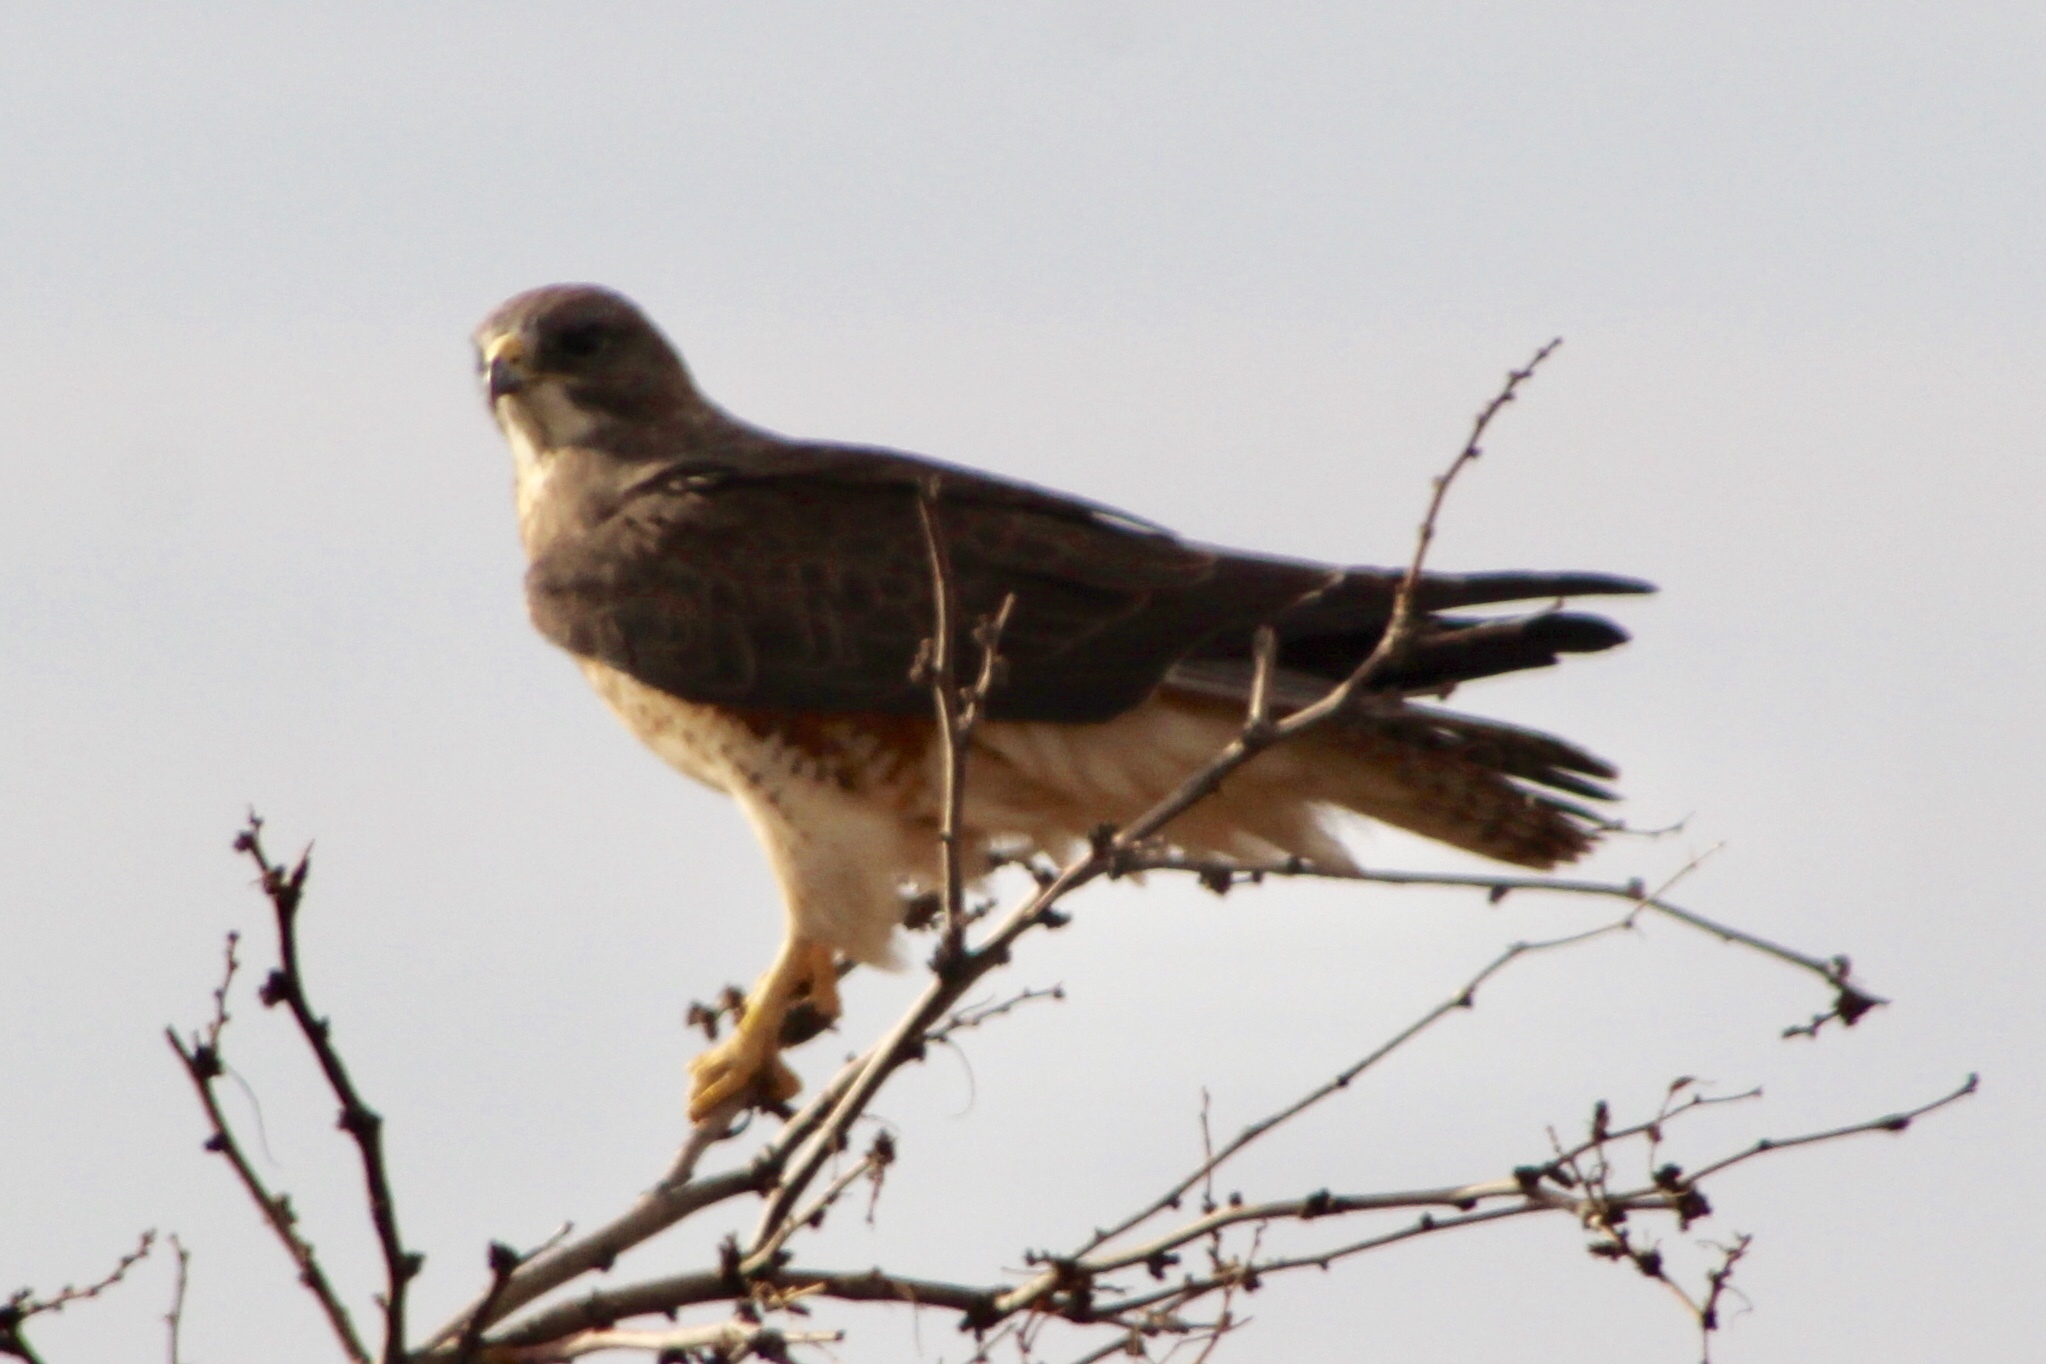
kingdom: Animalia
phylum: Chordata
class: Aves
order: Accipitriformes
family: Accipitridae
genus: Buteo
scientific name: Buteo swainsoni
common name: Swainson's hawk
